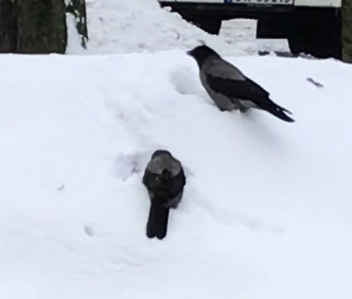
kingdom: Animalia
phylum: Chordata
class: Aves
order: Passeriformes
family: Corvidae
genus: Corvus
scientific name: Corvus cornix
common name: Hooded crow
